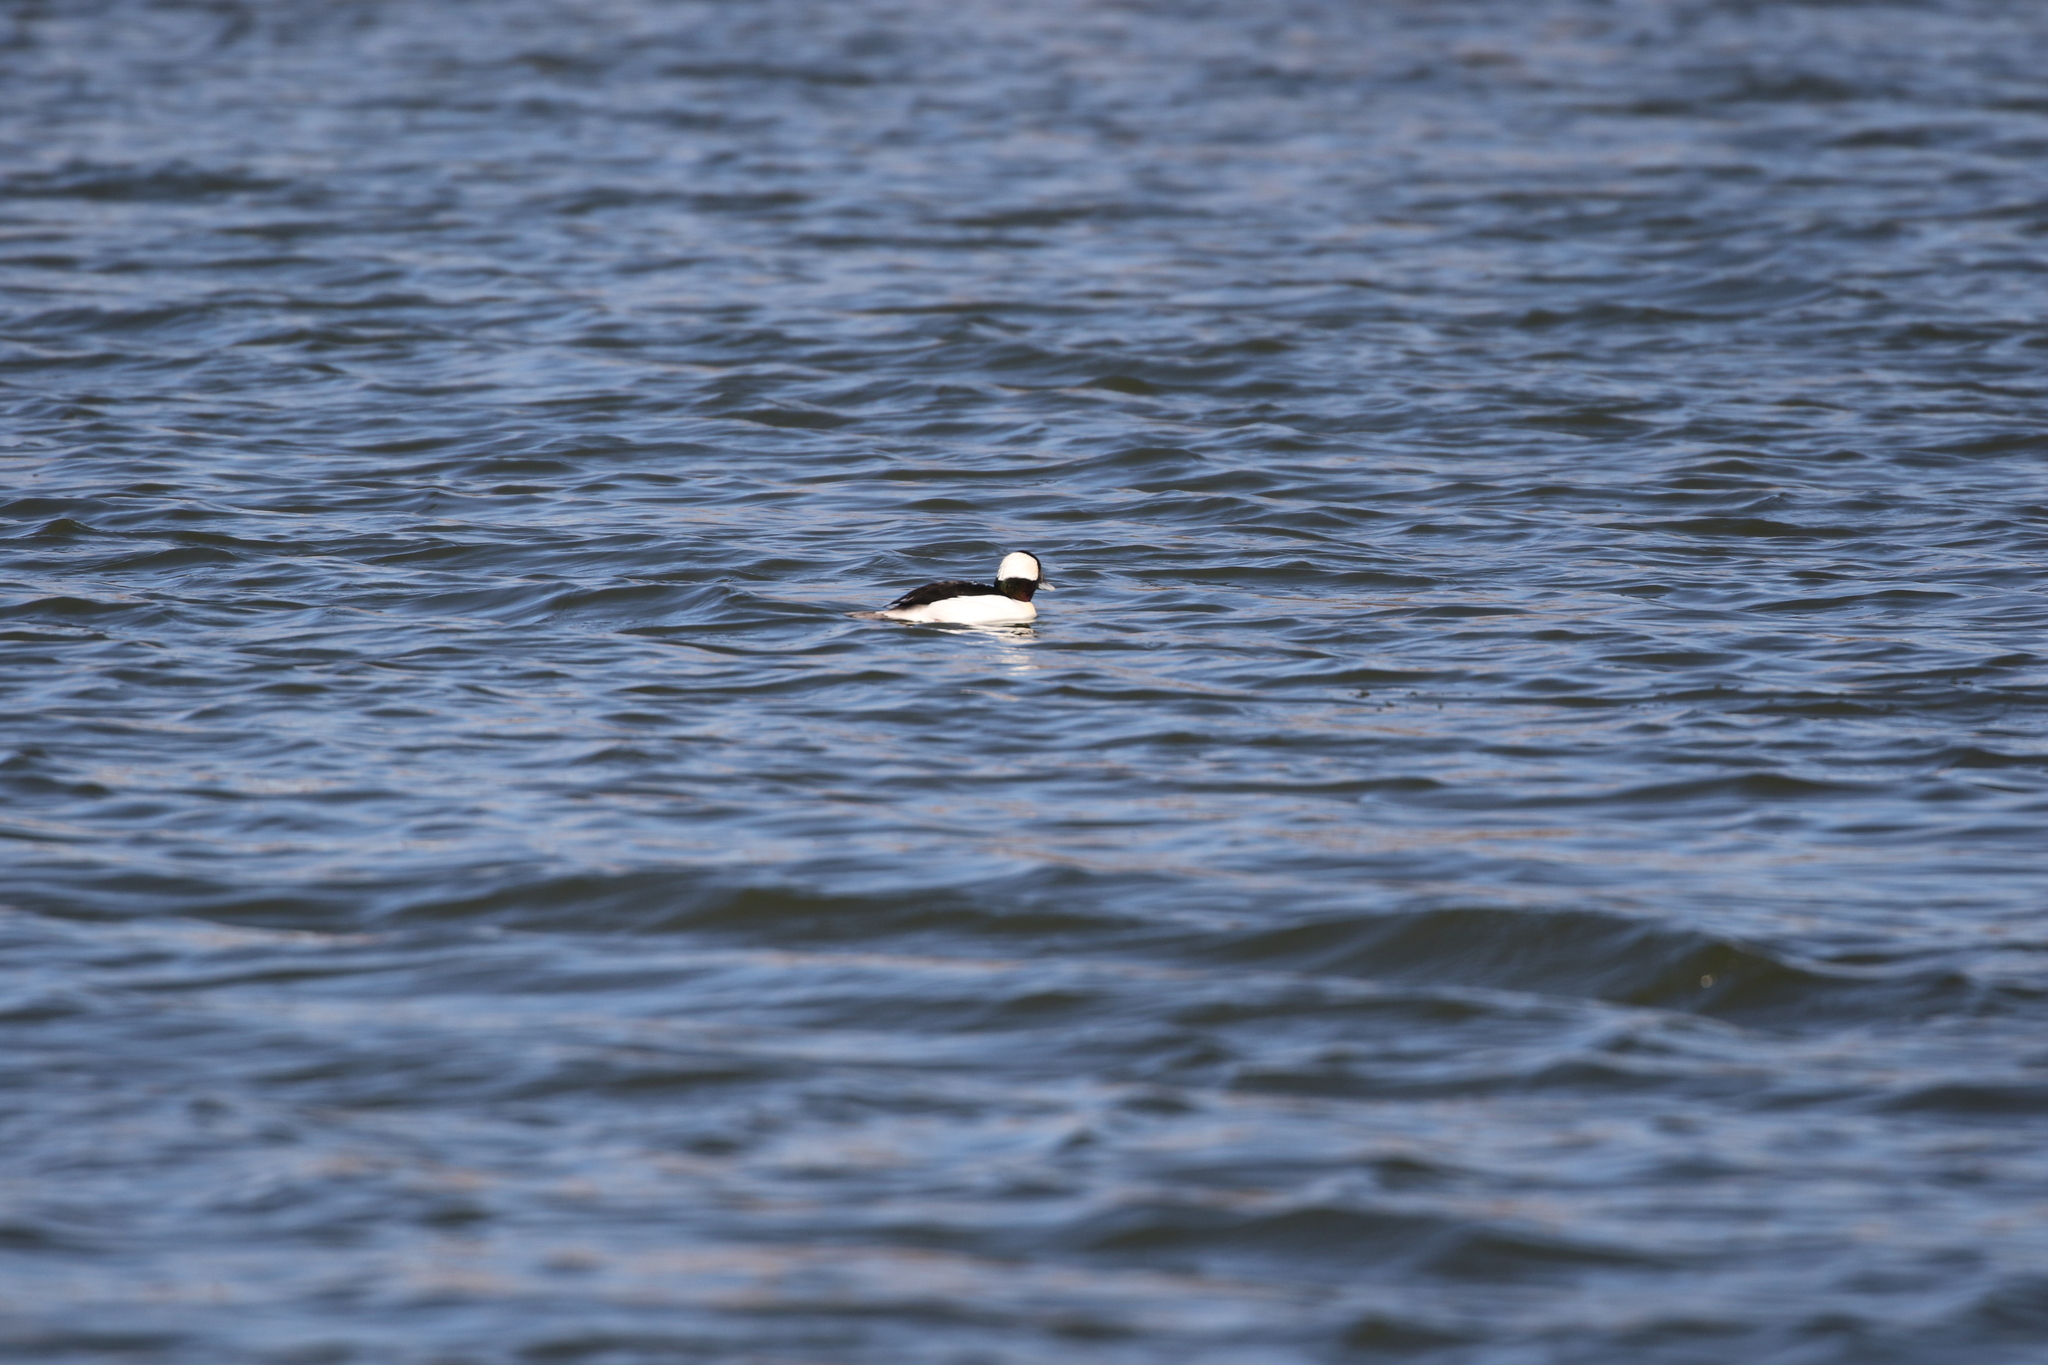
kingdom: Animalia
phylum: Chordata
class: Aves
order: Anseriformes
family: Anatidae
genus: Bucephala
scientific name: Bucephala albeola
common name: Bufflehead
